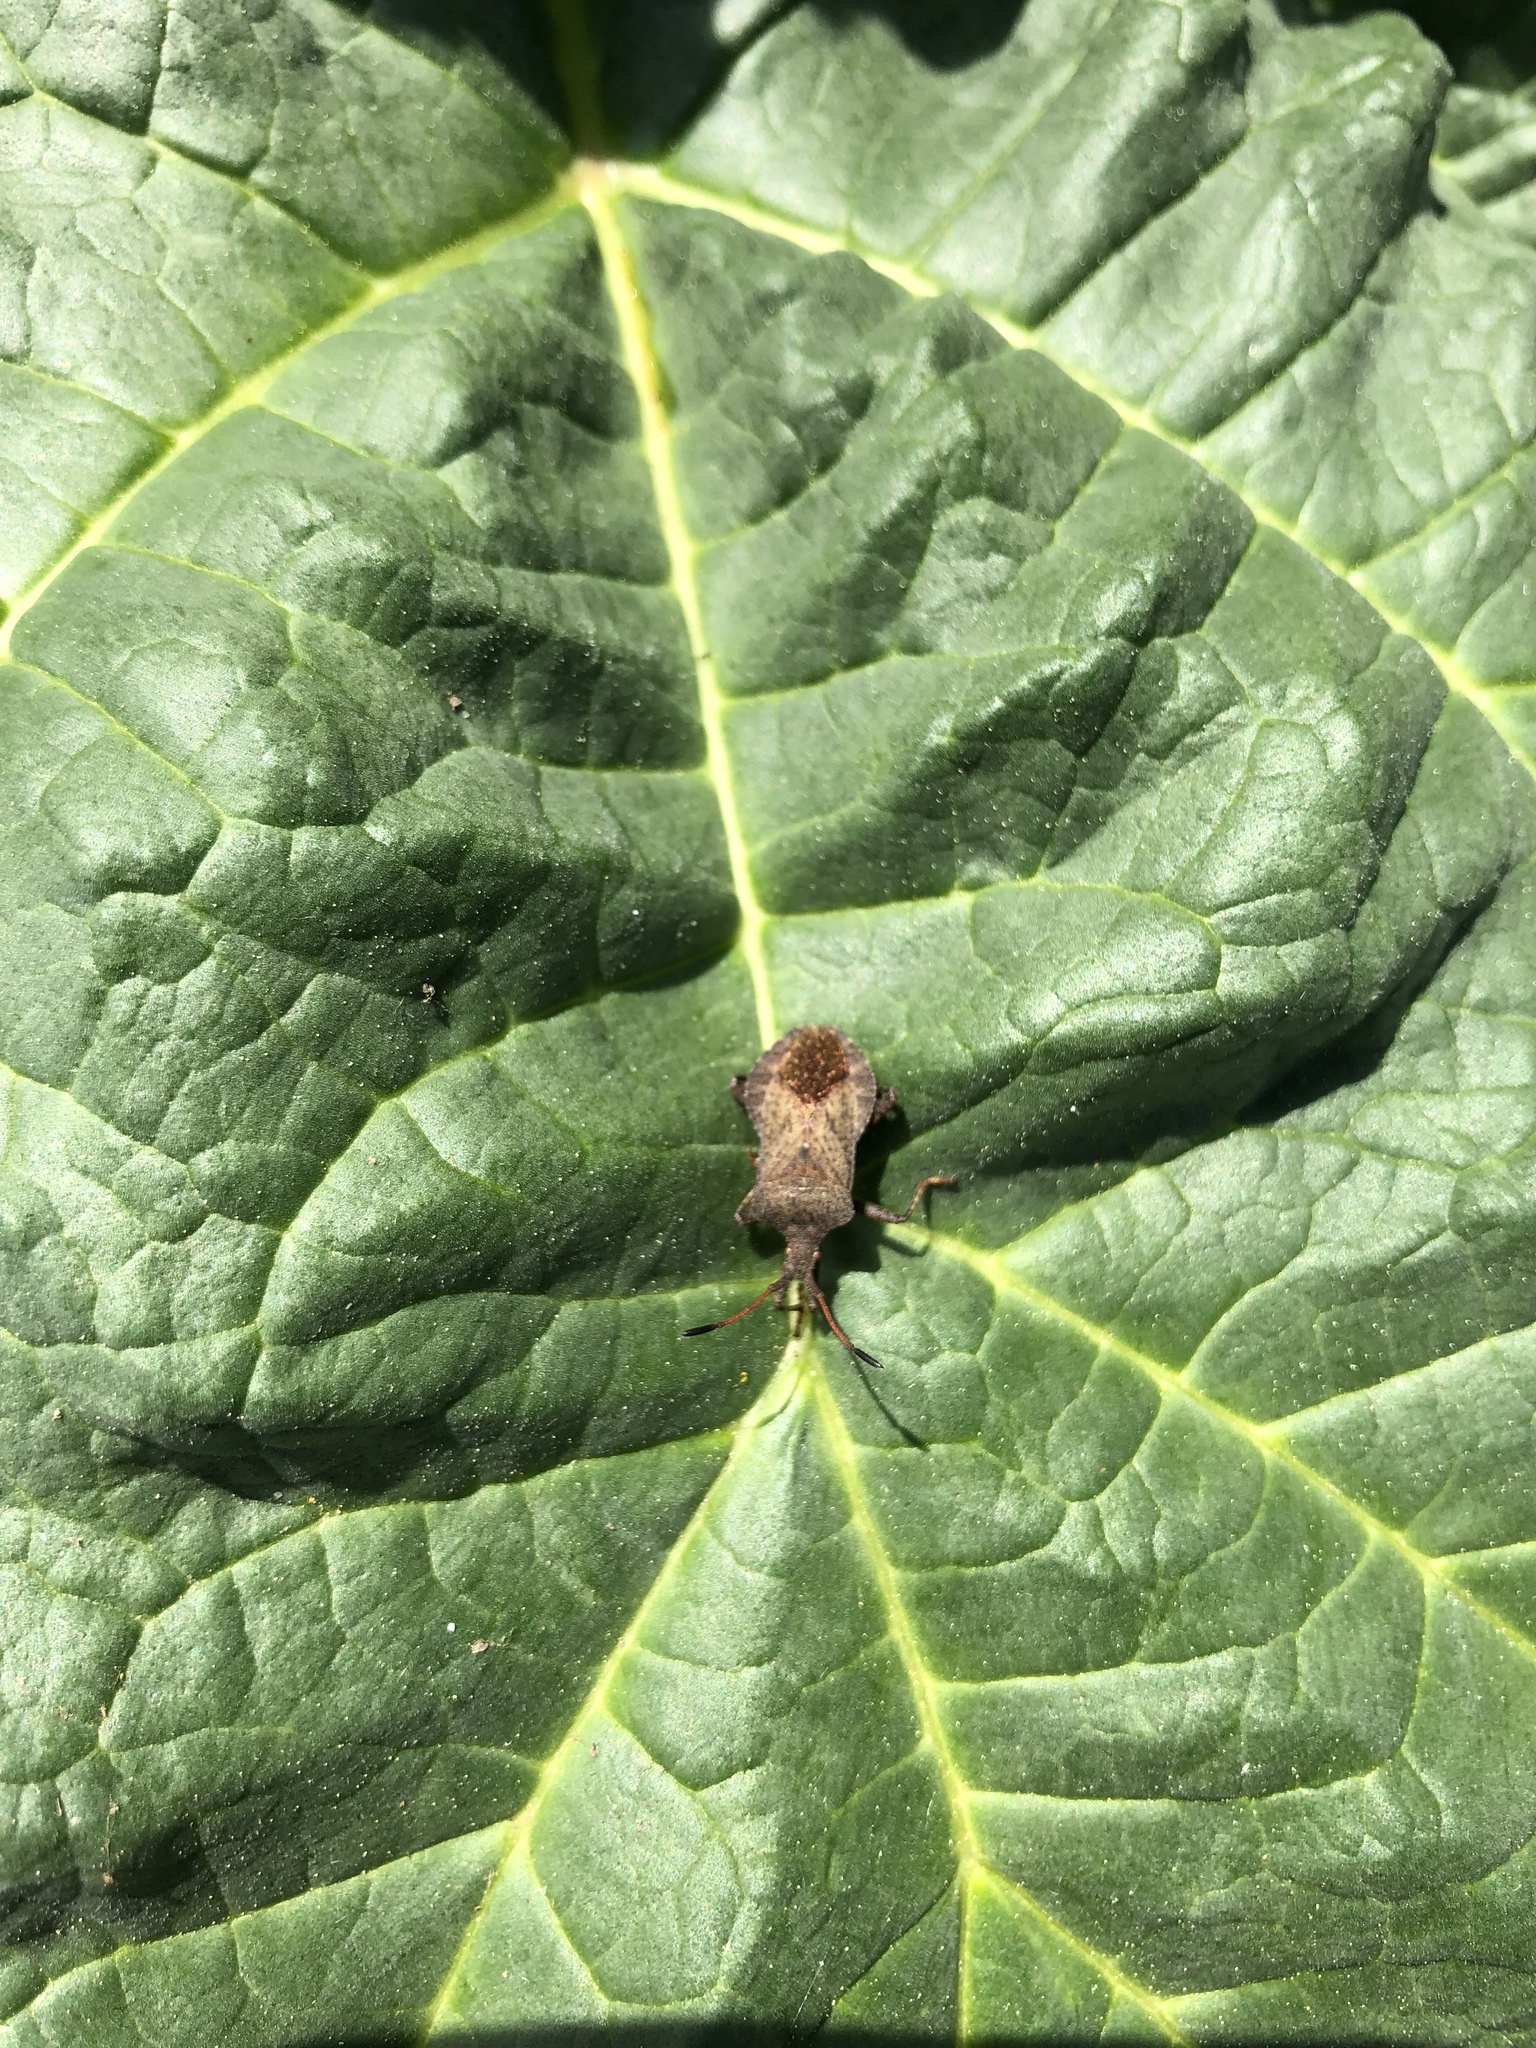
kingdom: Animalia
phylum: Arthropoda
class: Insecta
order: Hemiptera
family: Coreidae
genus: Coreus
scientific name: Coreus marginatus
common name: Dock bug
